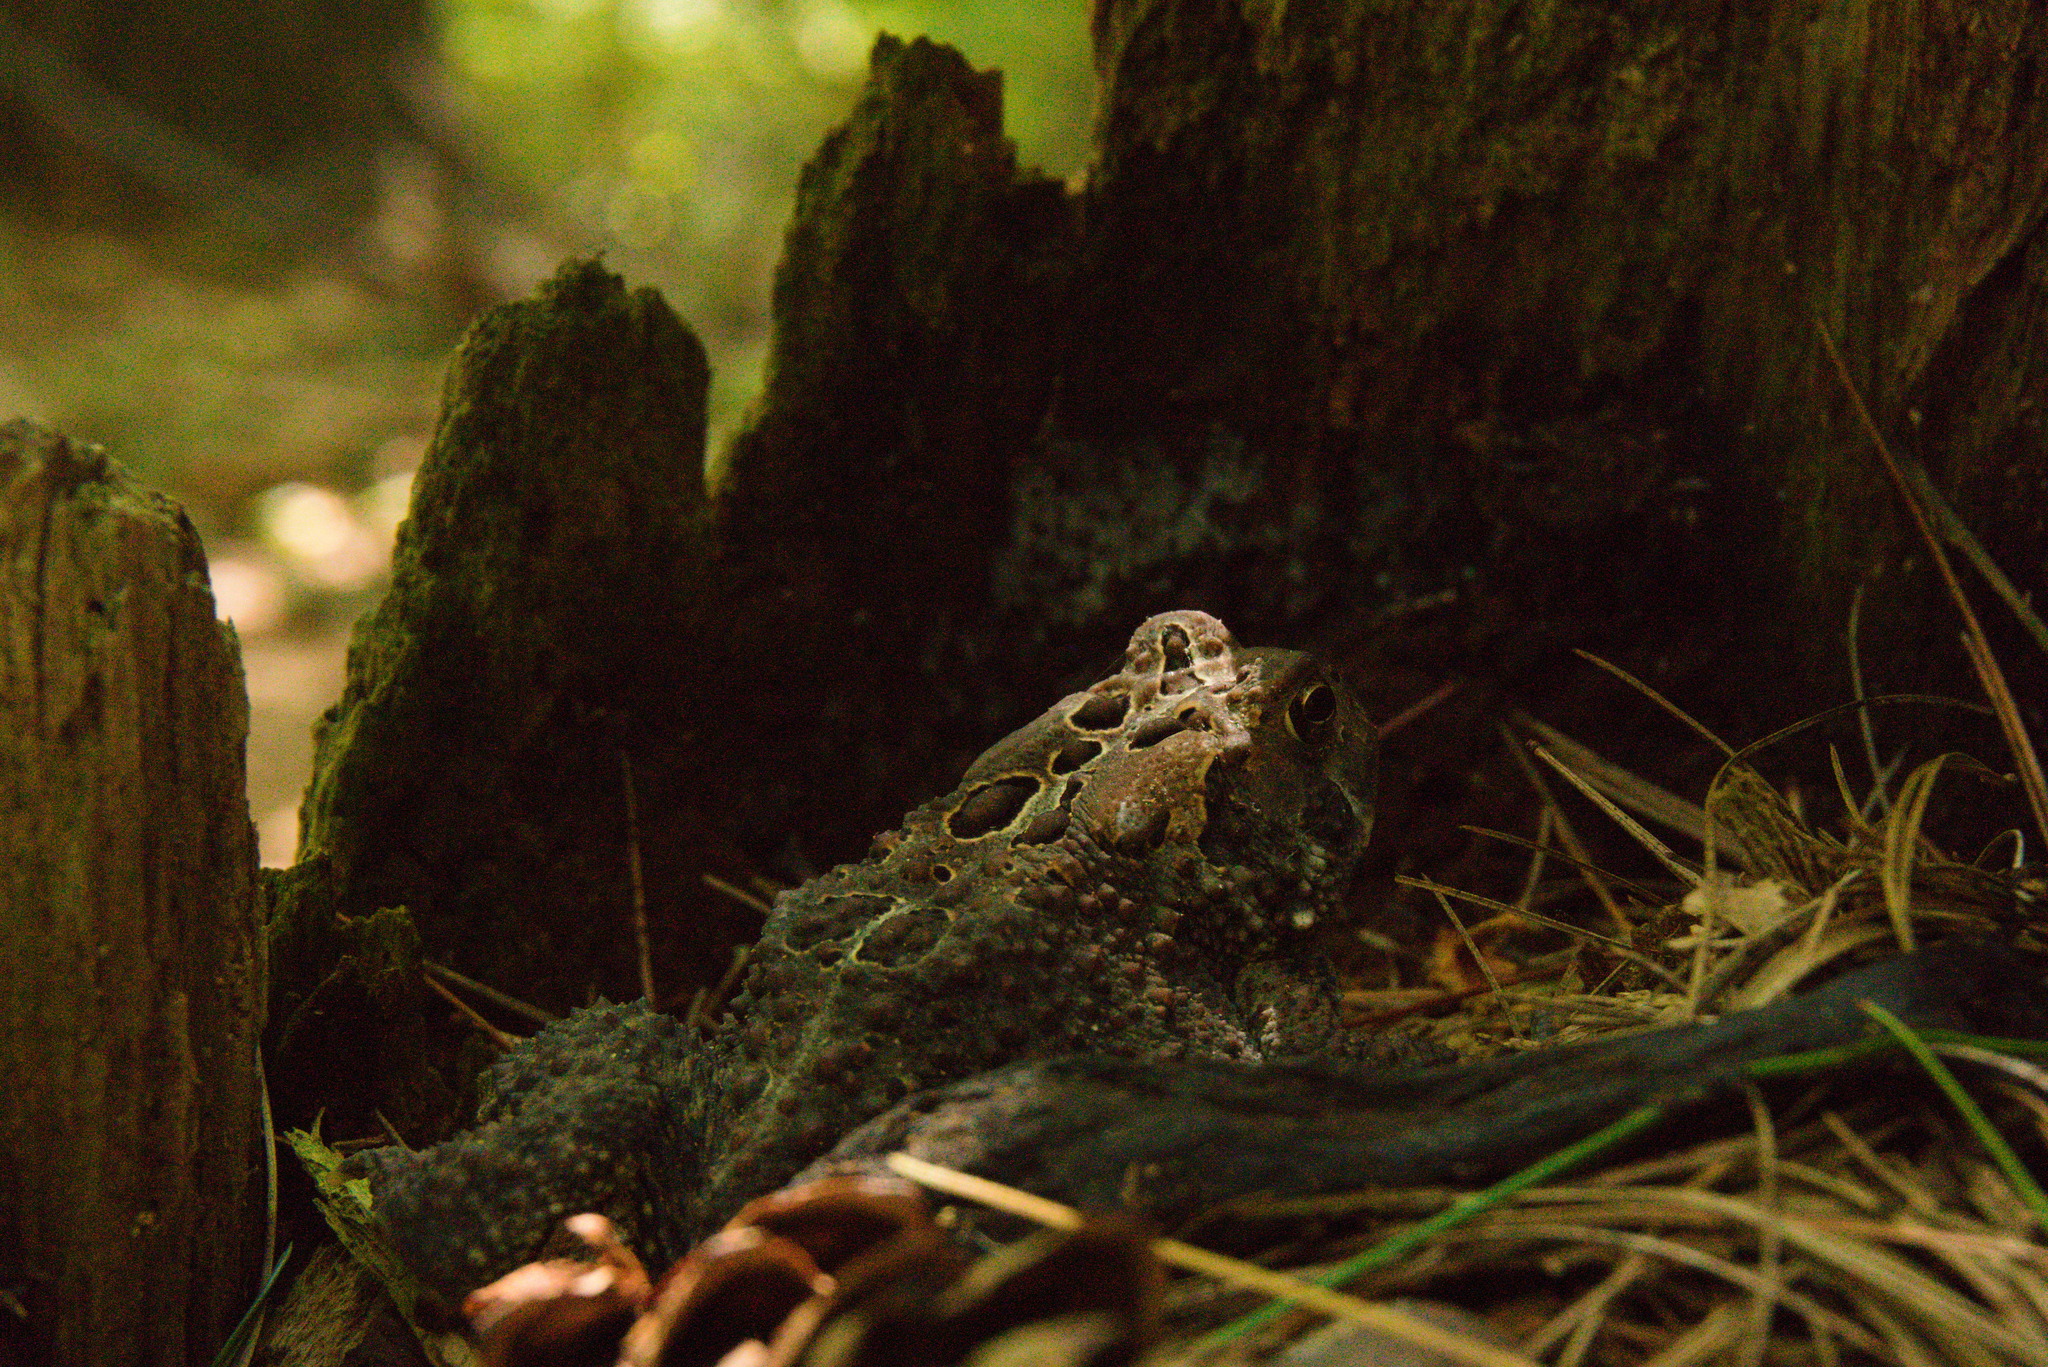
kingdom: Animalia
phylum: Chordata
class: Amphibia
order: Anura
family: Bufonidae
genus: Anaxyrus
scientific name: Anaxyrus americanus
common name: American toad
